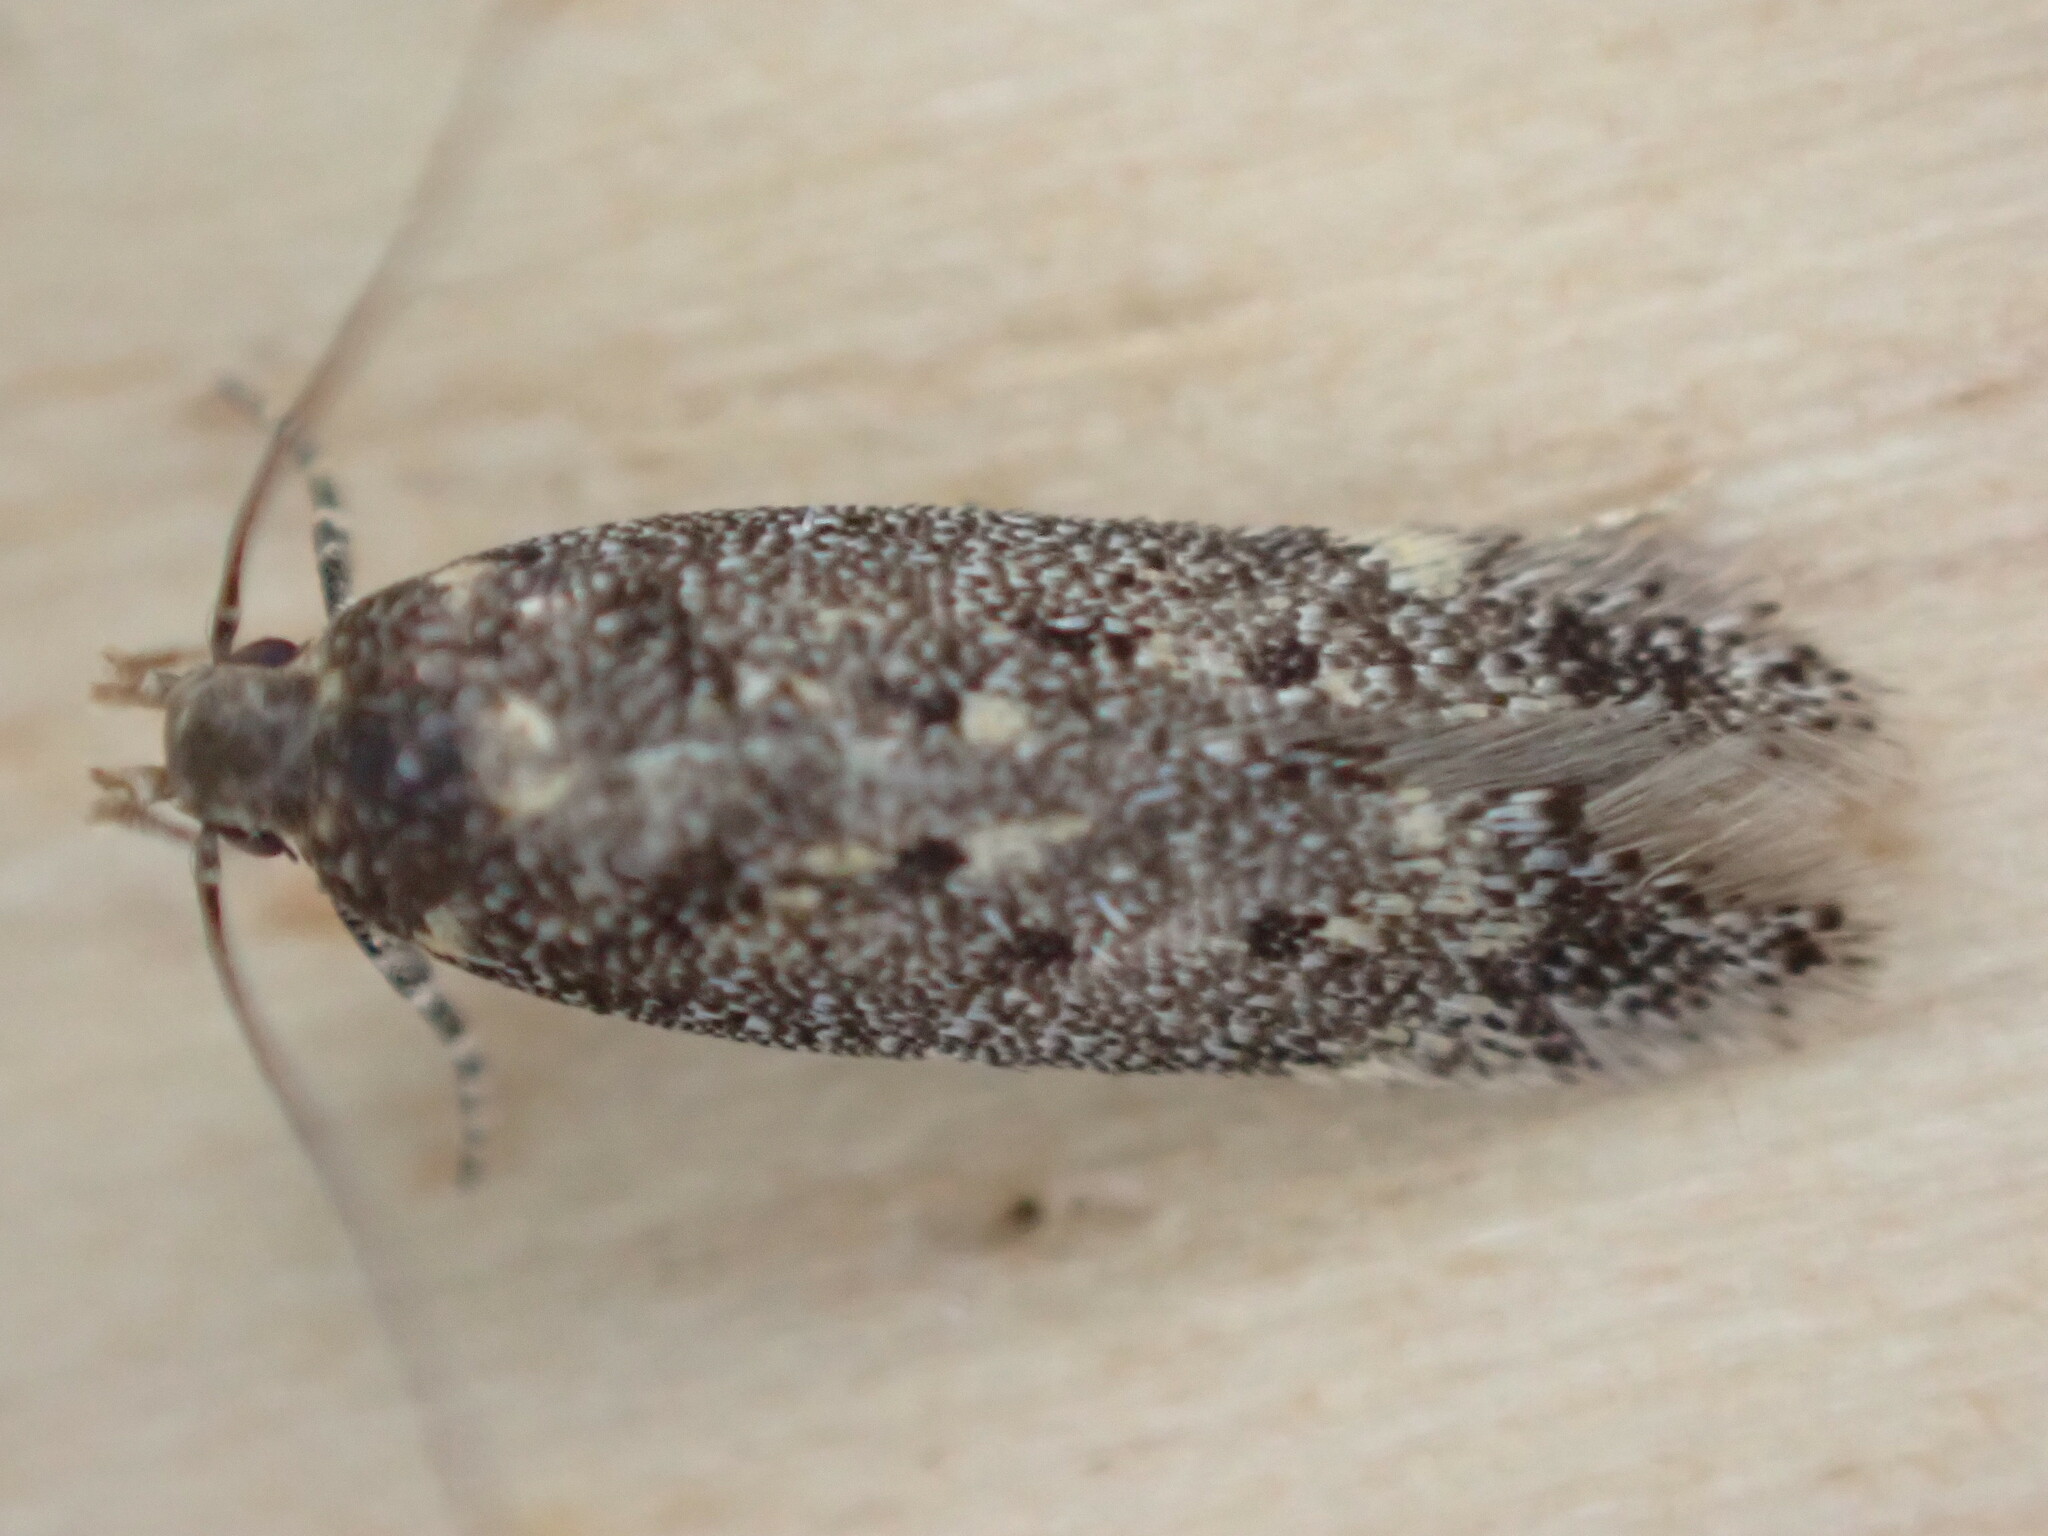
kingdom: Animalia
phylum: Arthropoda
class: Insecta
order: Lepidoptera
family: Gelechiidae
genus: Bryotropha
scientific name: Bryotropha affinis
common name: Dark groundling
